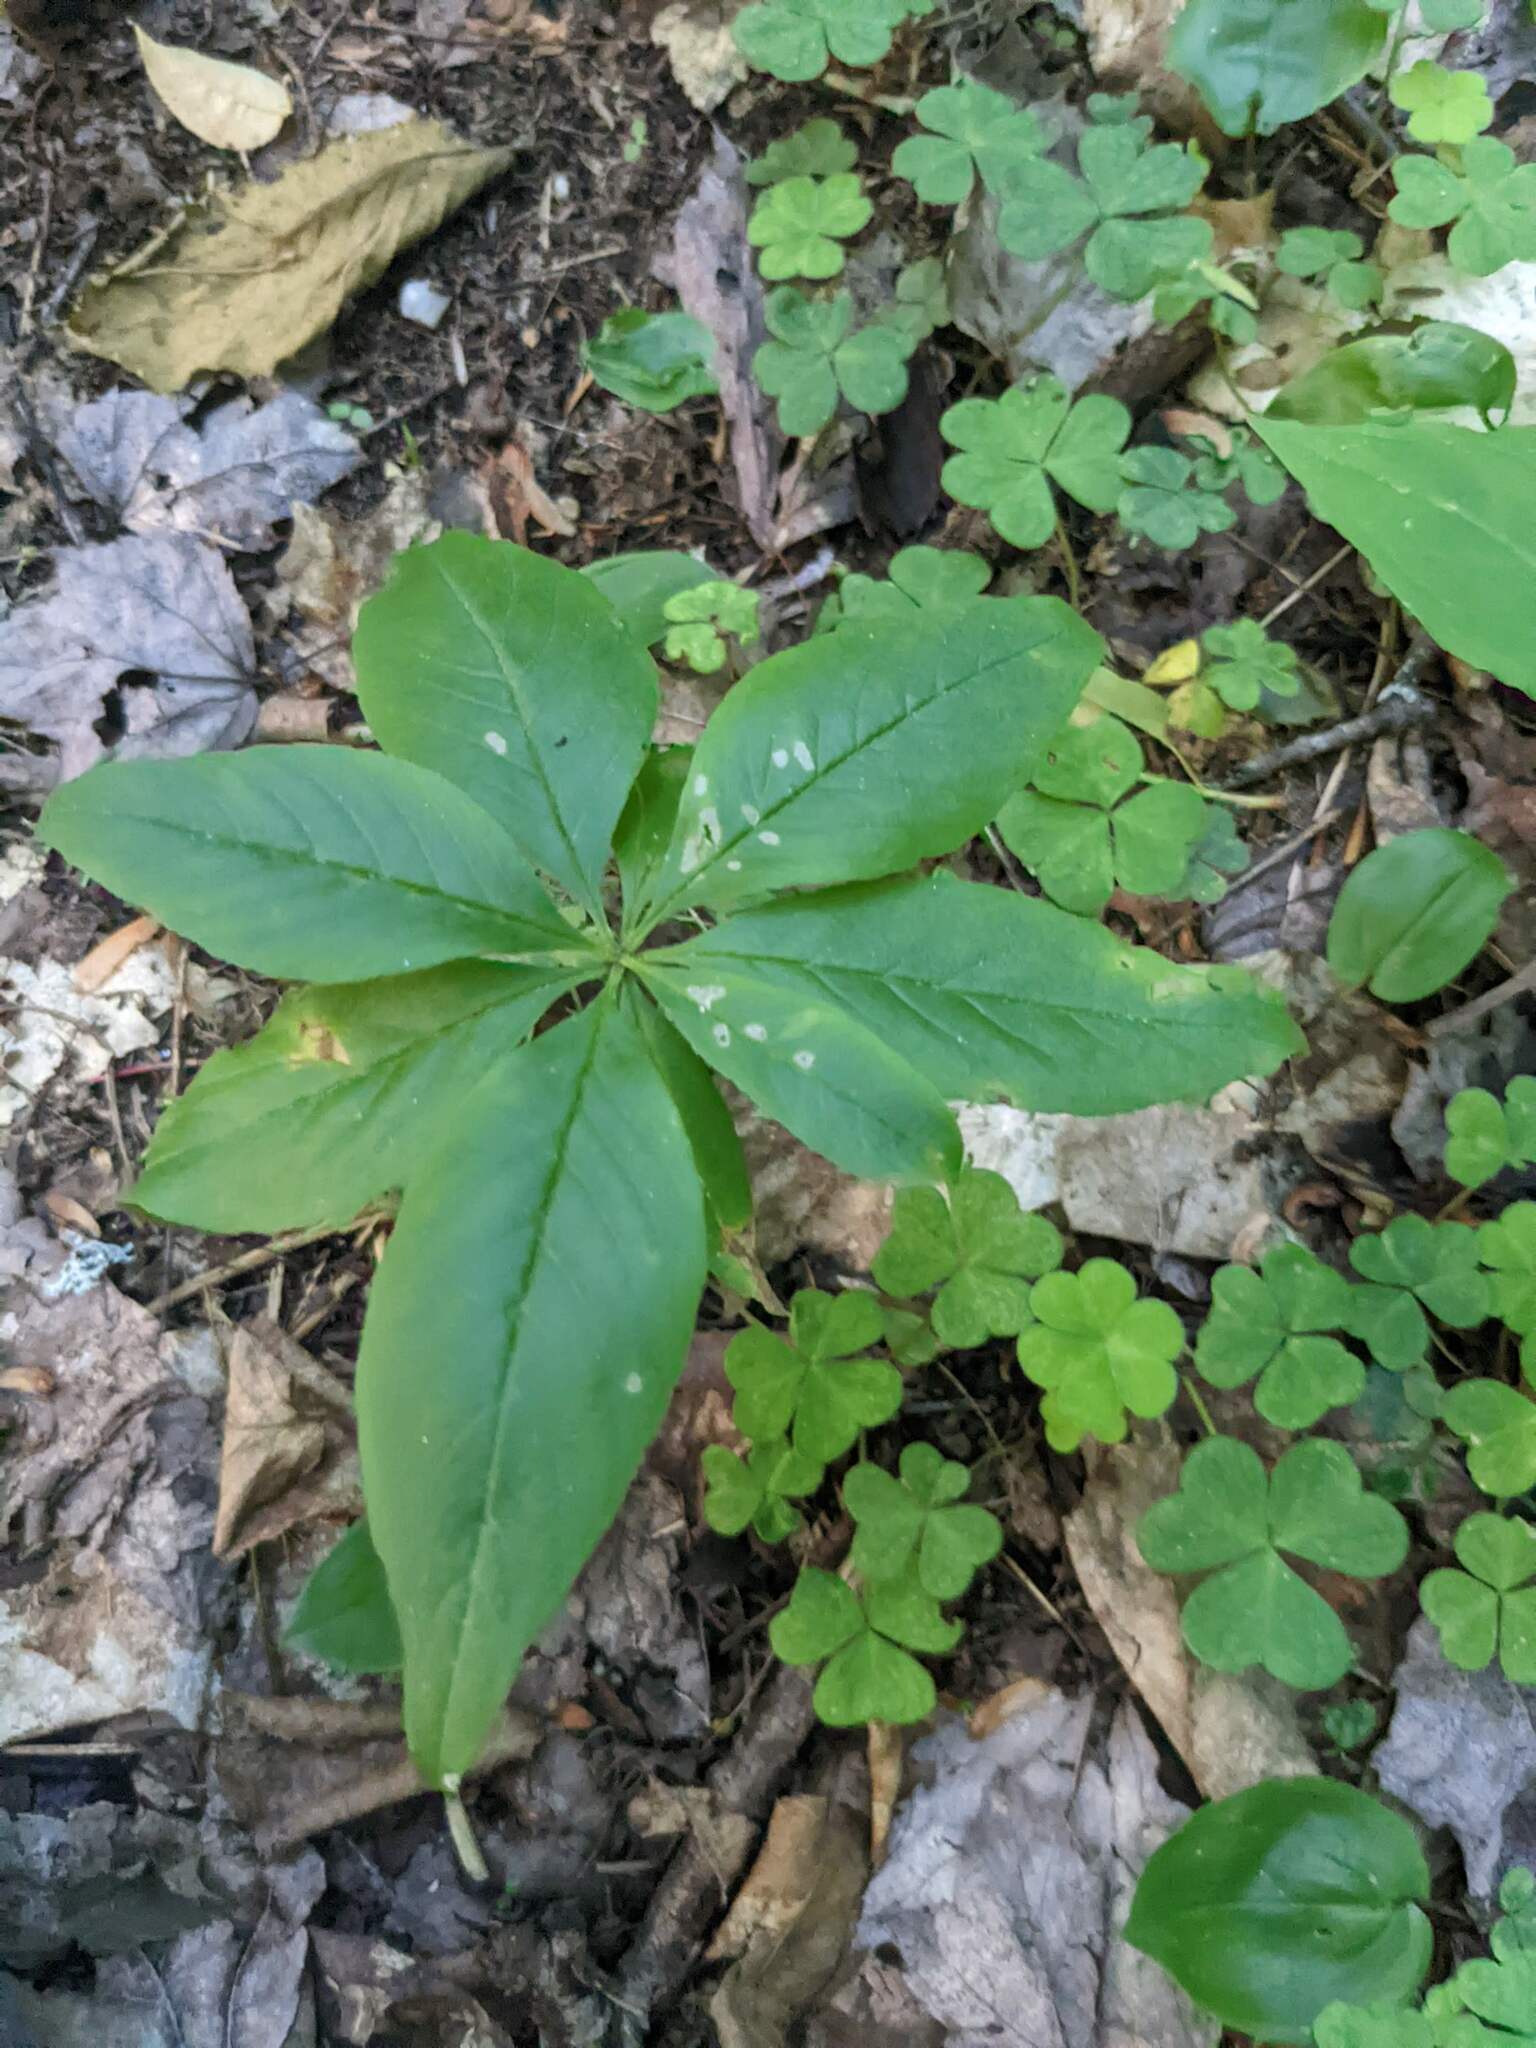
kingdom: Plantae
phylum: Tracheophyta
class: Magnoliopsida
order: Ericales
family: Primulaceae
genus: Lysimachia
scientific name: Lysimachia borealis
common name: American starflower
